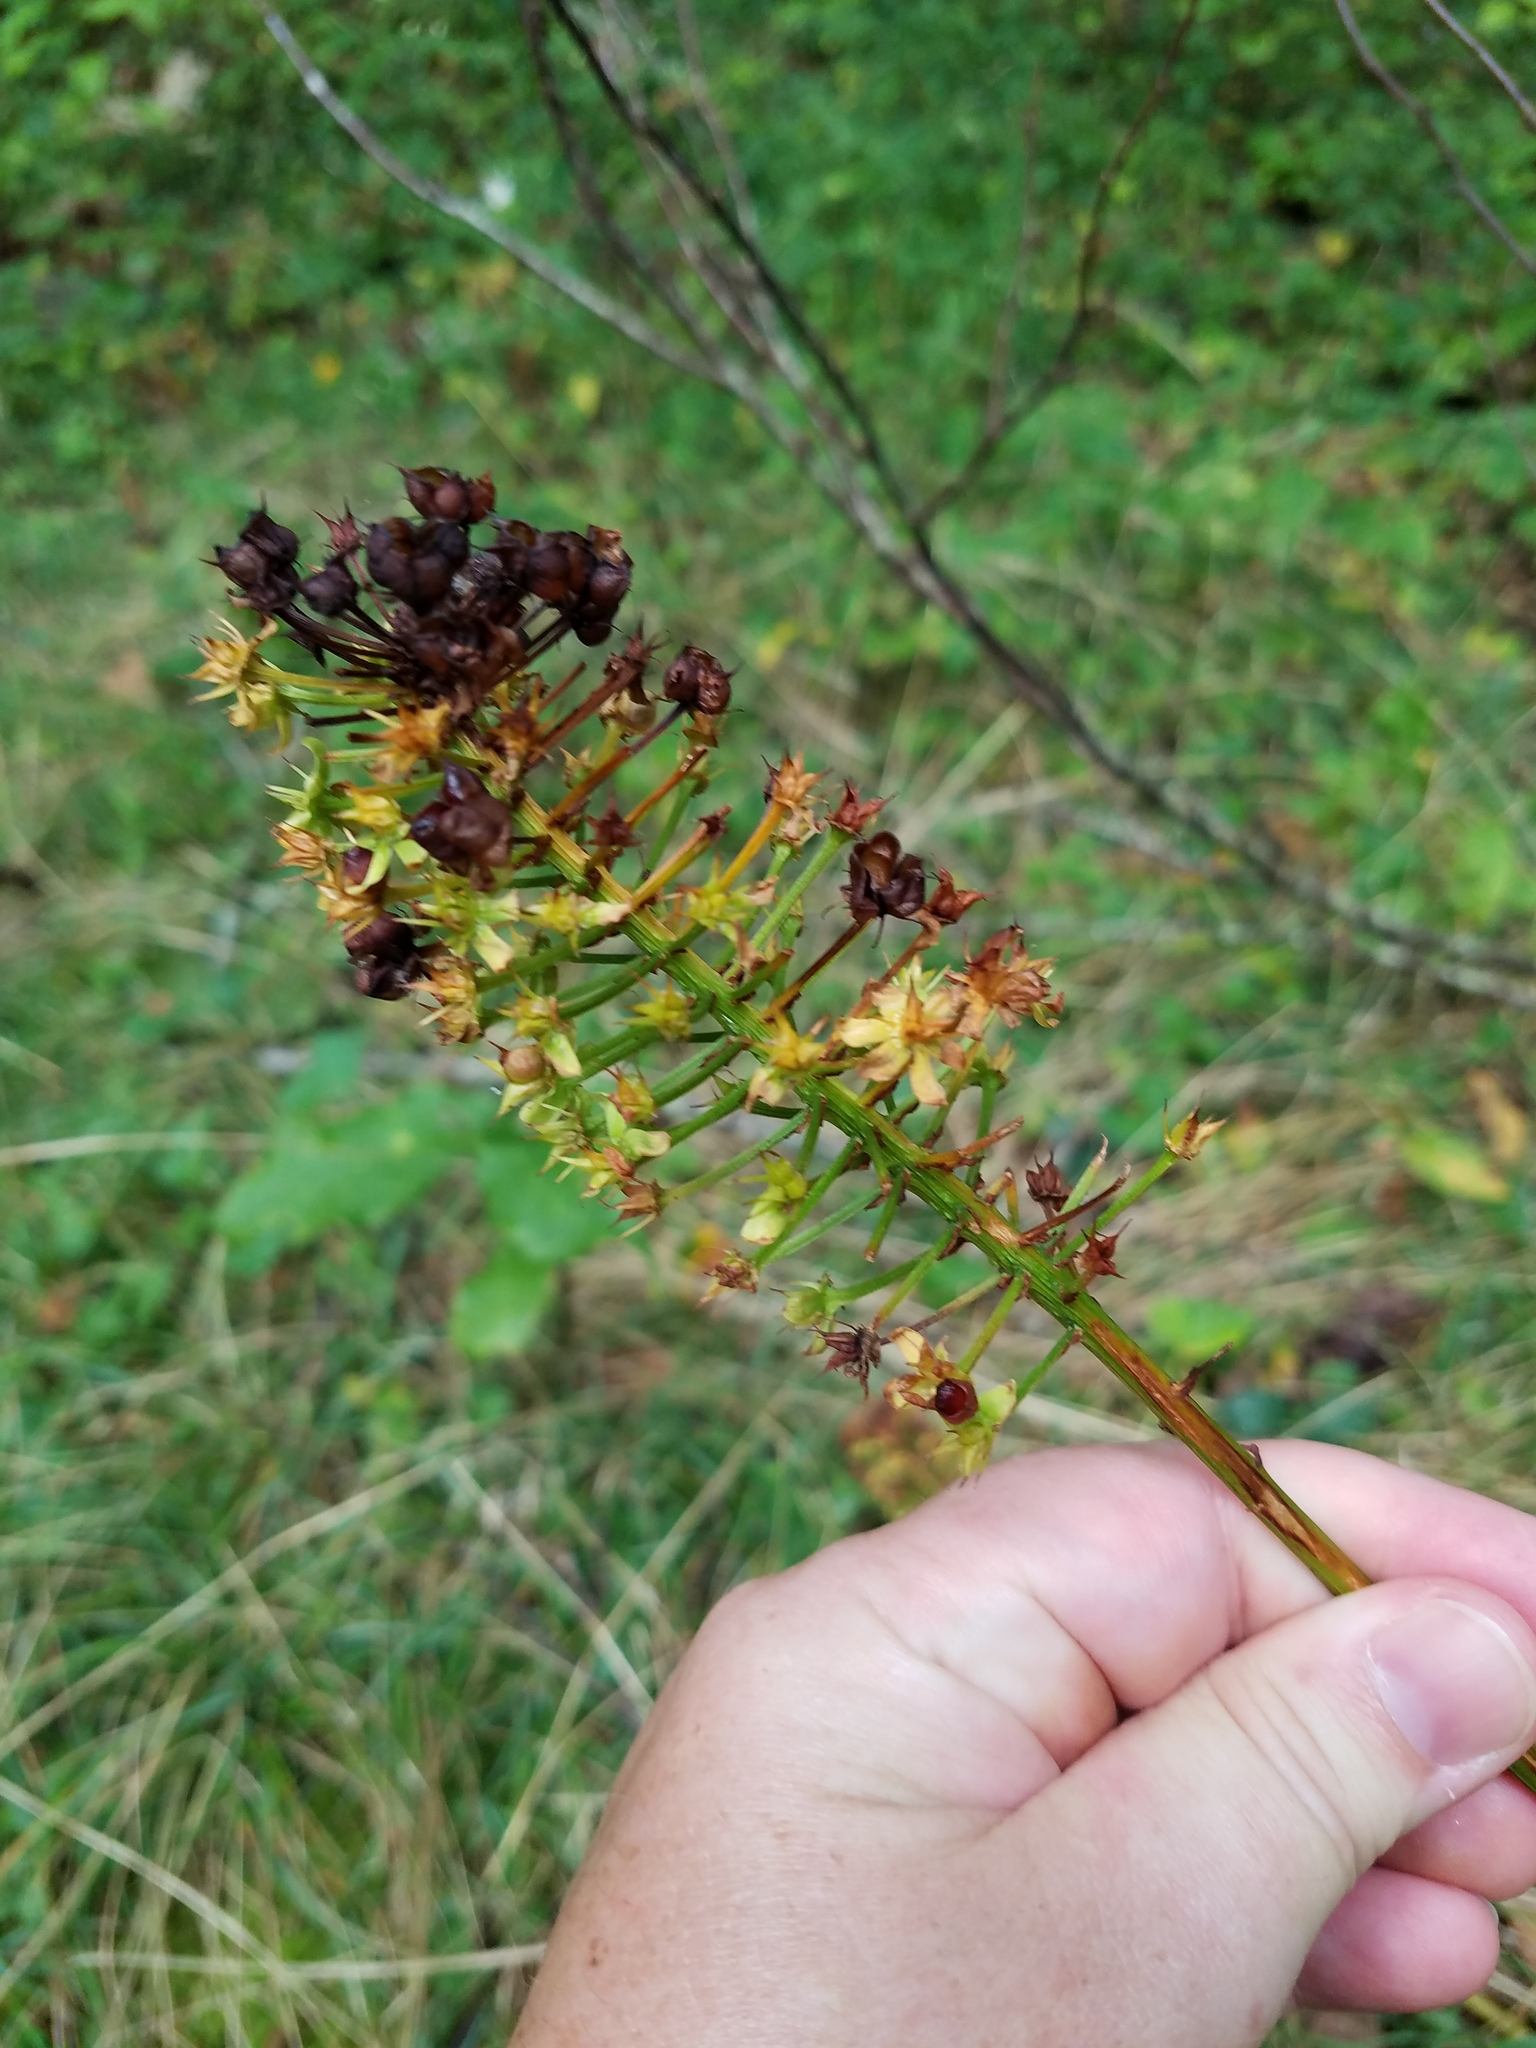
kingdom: Plantae
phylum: Tracheophyta
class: Liliopsida
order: Liliales
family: Melanthiaceae
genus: Amianthium
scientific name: Amianthium muscitoxicum
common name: Fly-poison
